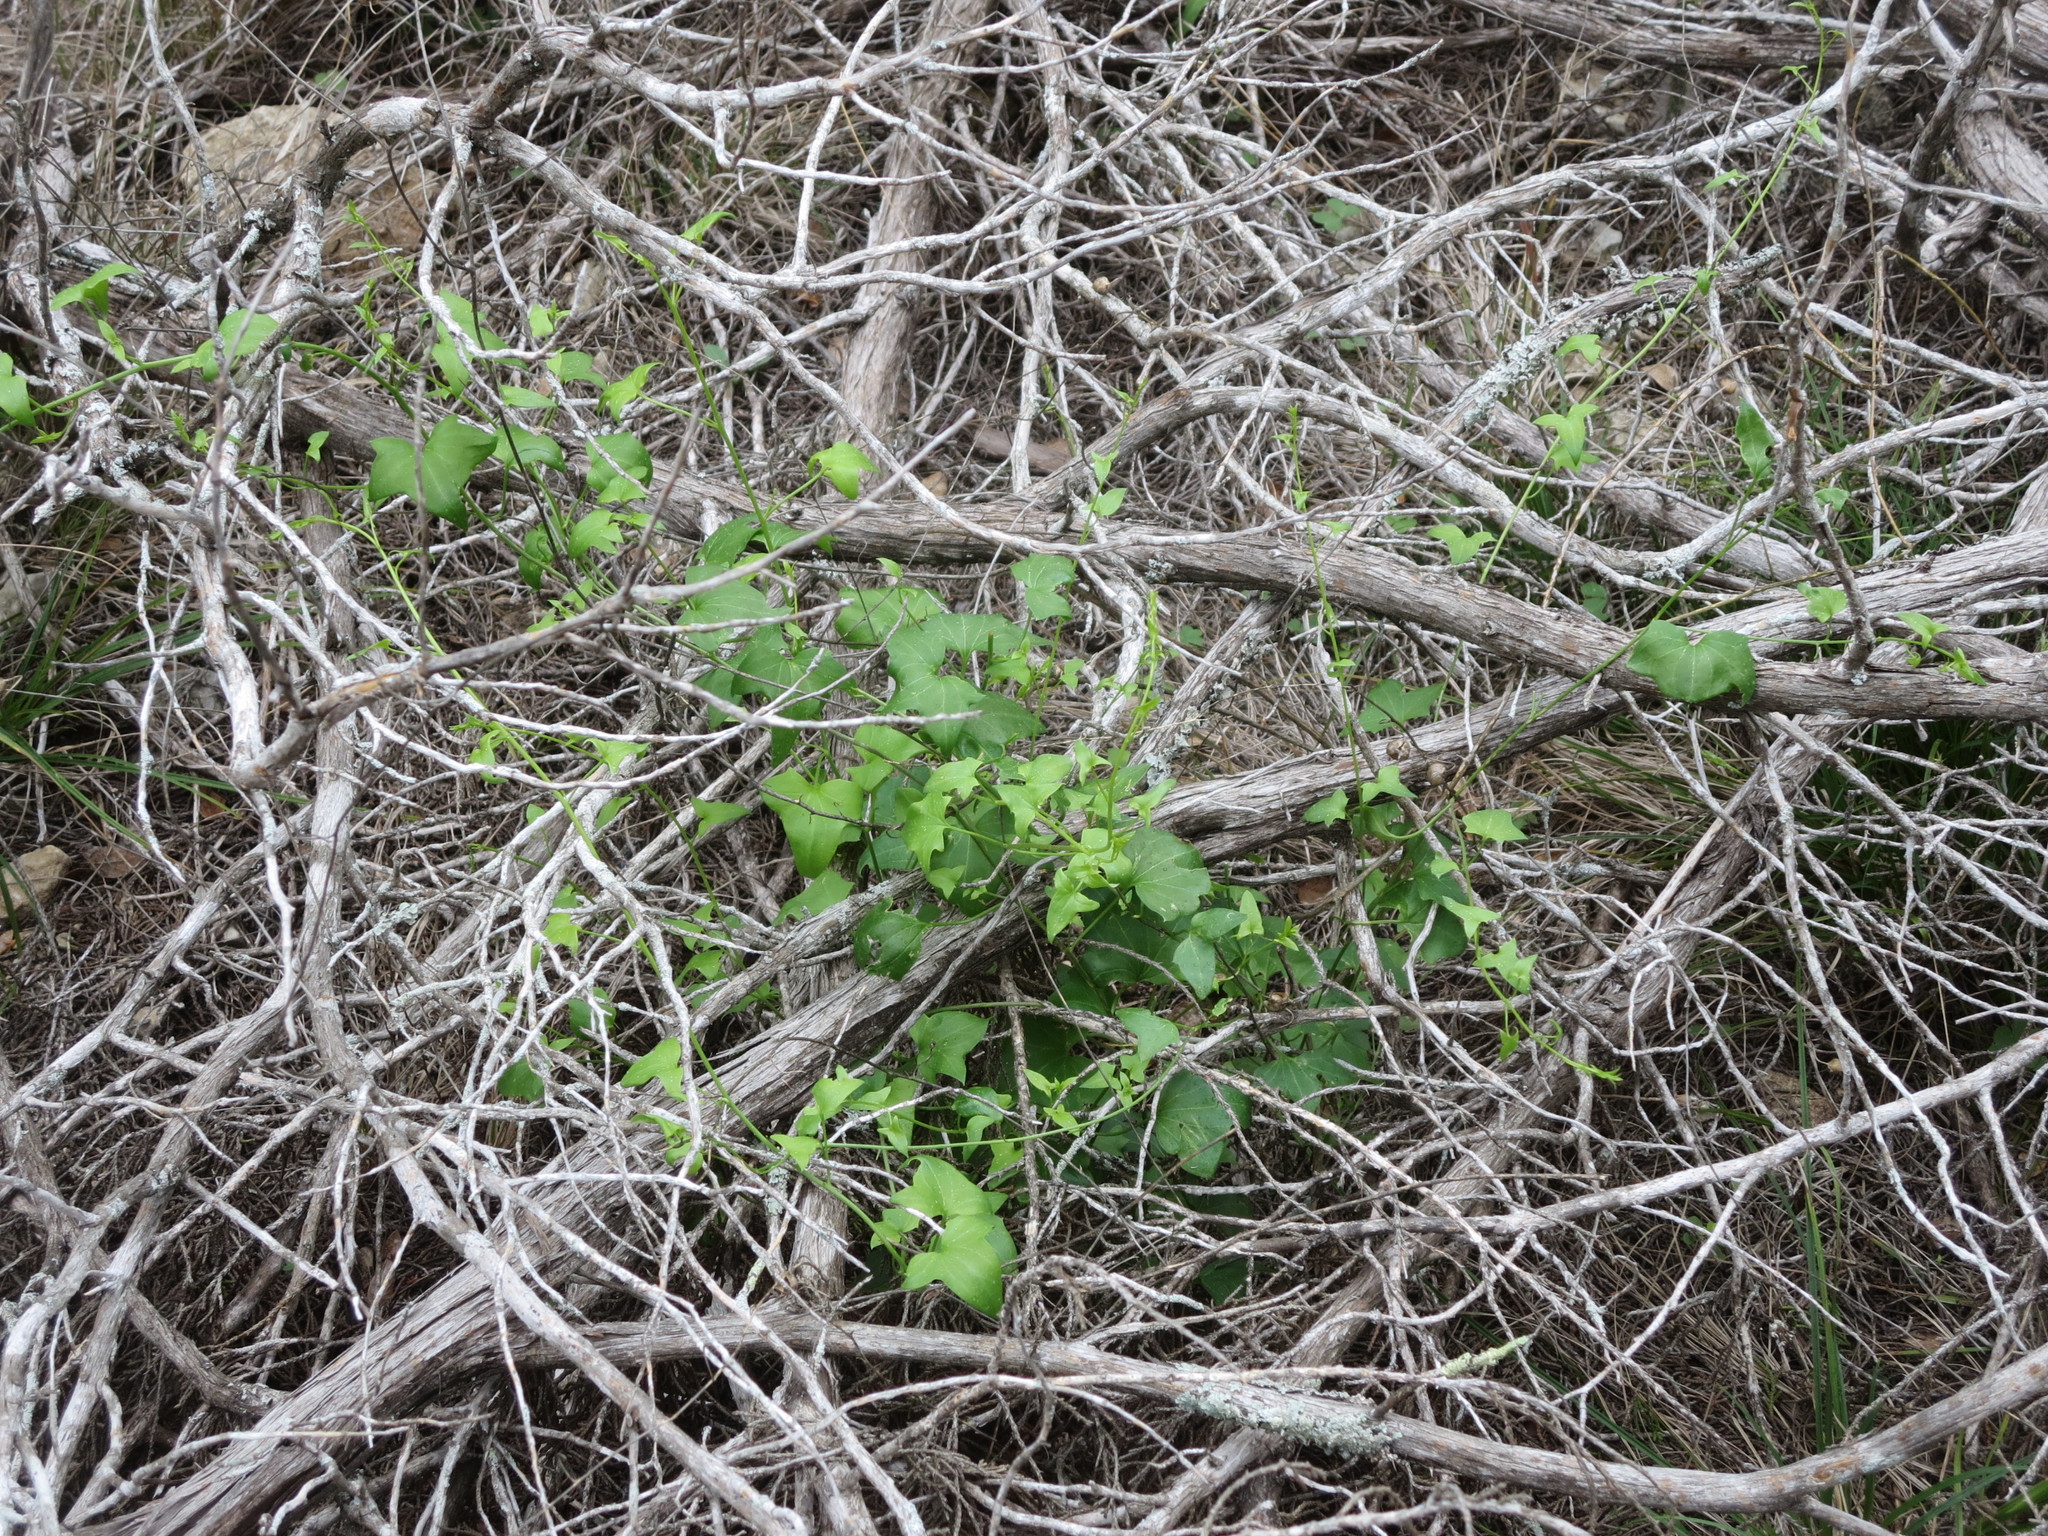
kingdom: Plantae
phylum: Tracheophyta
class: Magnoliopsida
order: Lamiales
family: Plantaginaceae
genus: Maurandella
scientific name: Maurandella antirrhiniflora
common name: Violet twining-snapdragon
